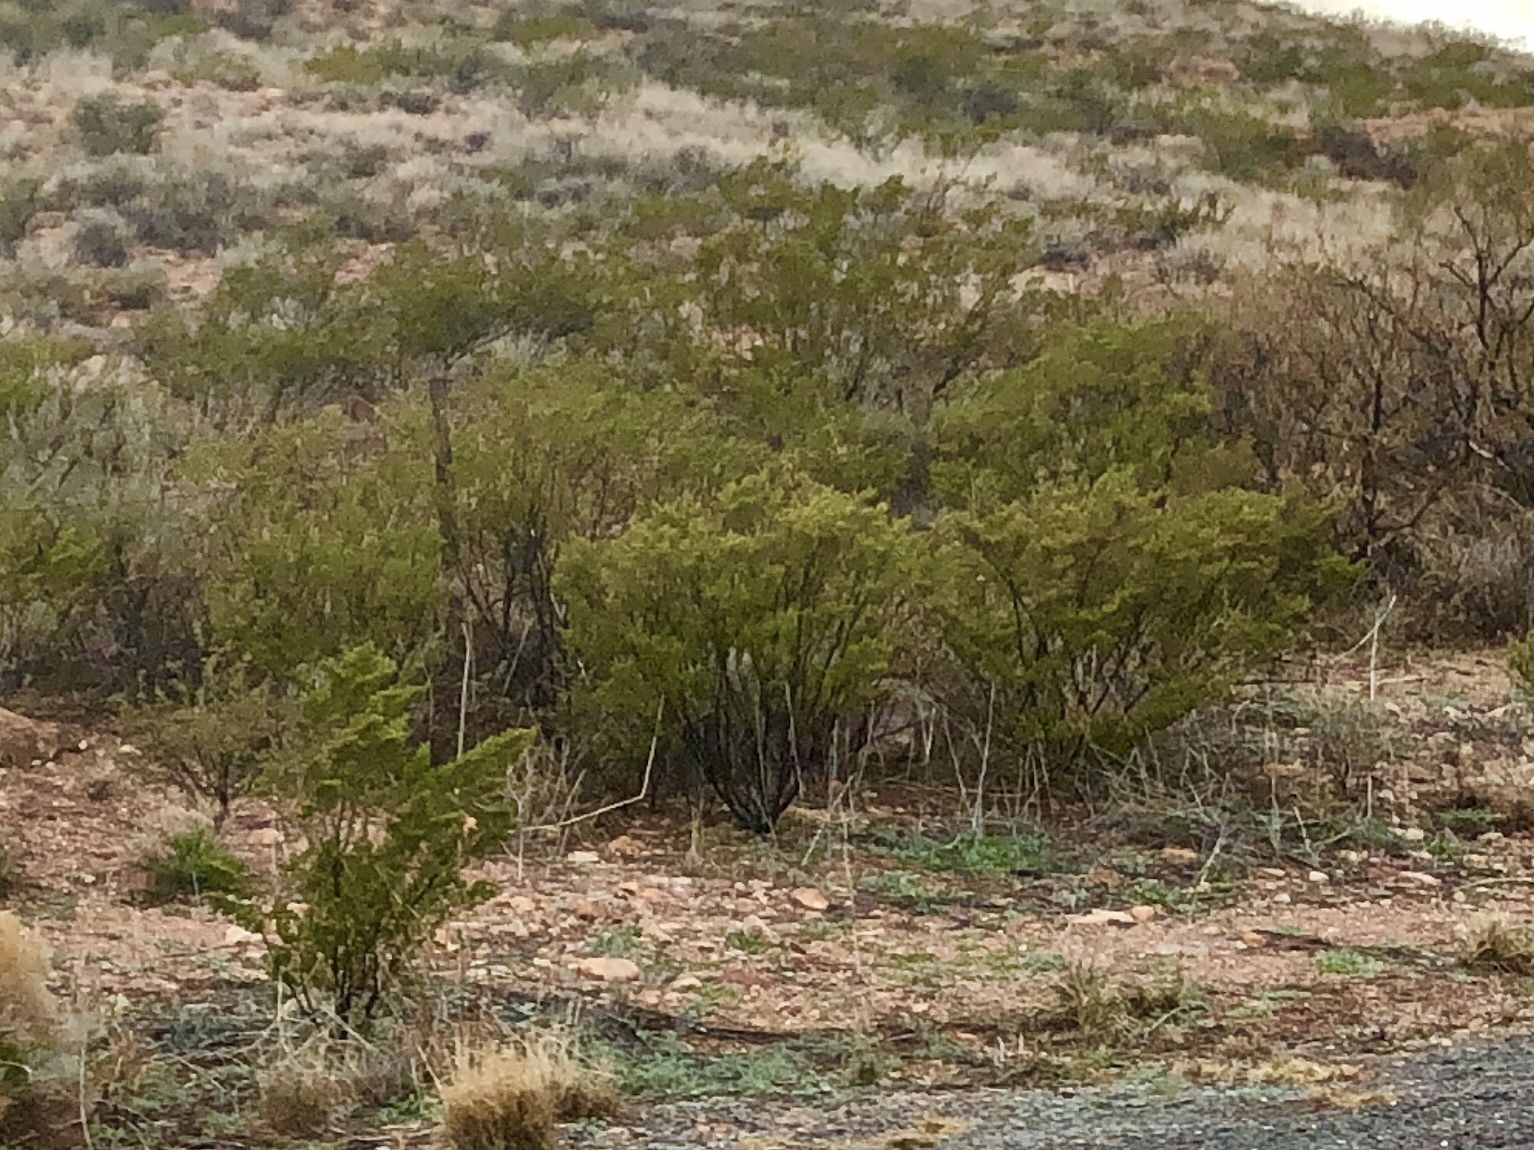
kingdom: Plantae
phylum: Tracheophyta
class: Magnoliopsida
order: Zygophyllales
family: Zygophyllaceae
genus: Larrea
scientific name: Larrea tridentata
